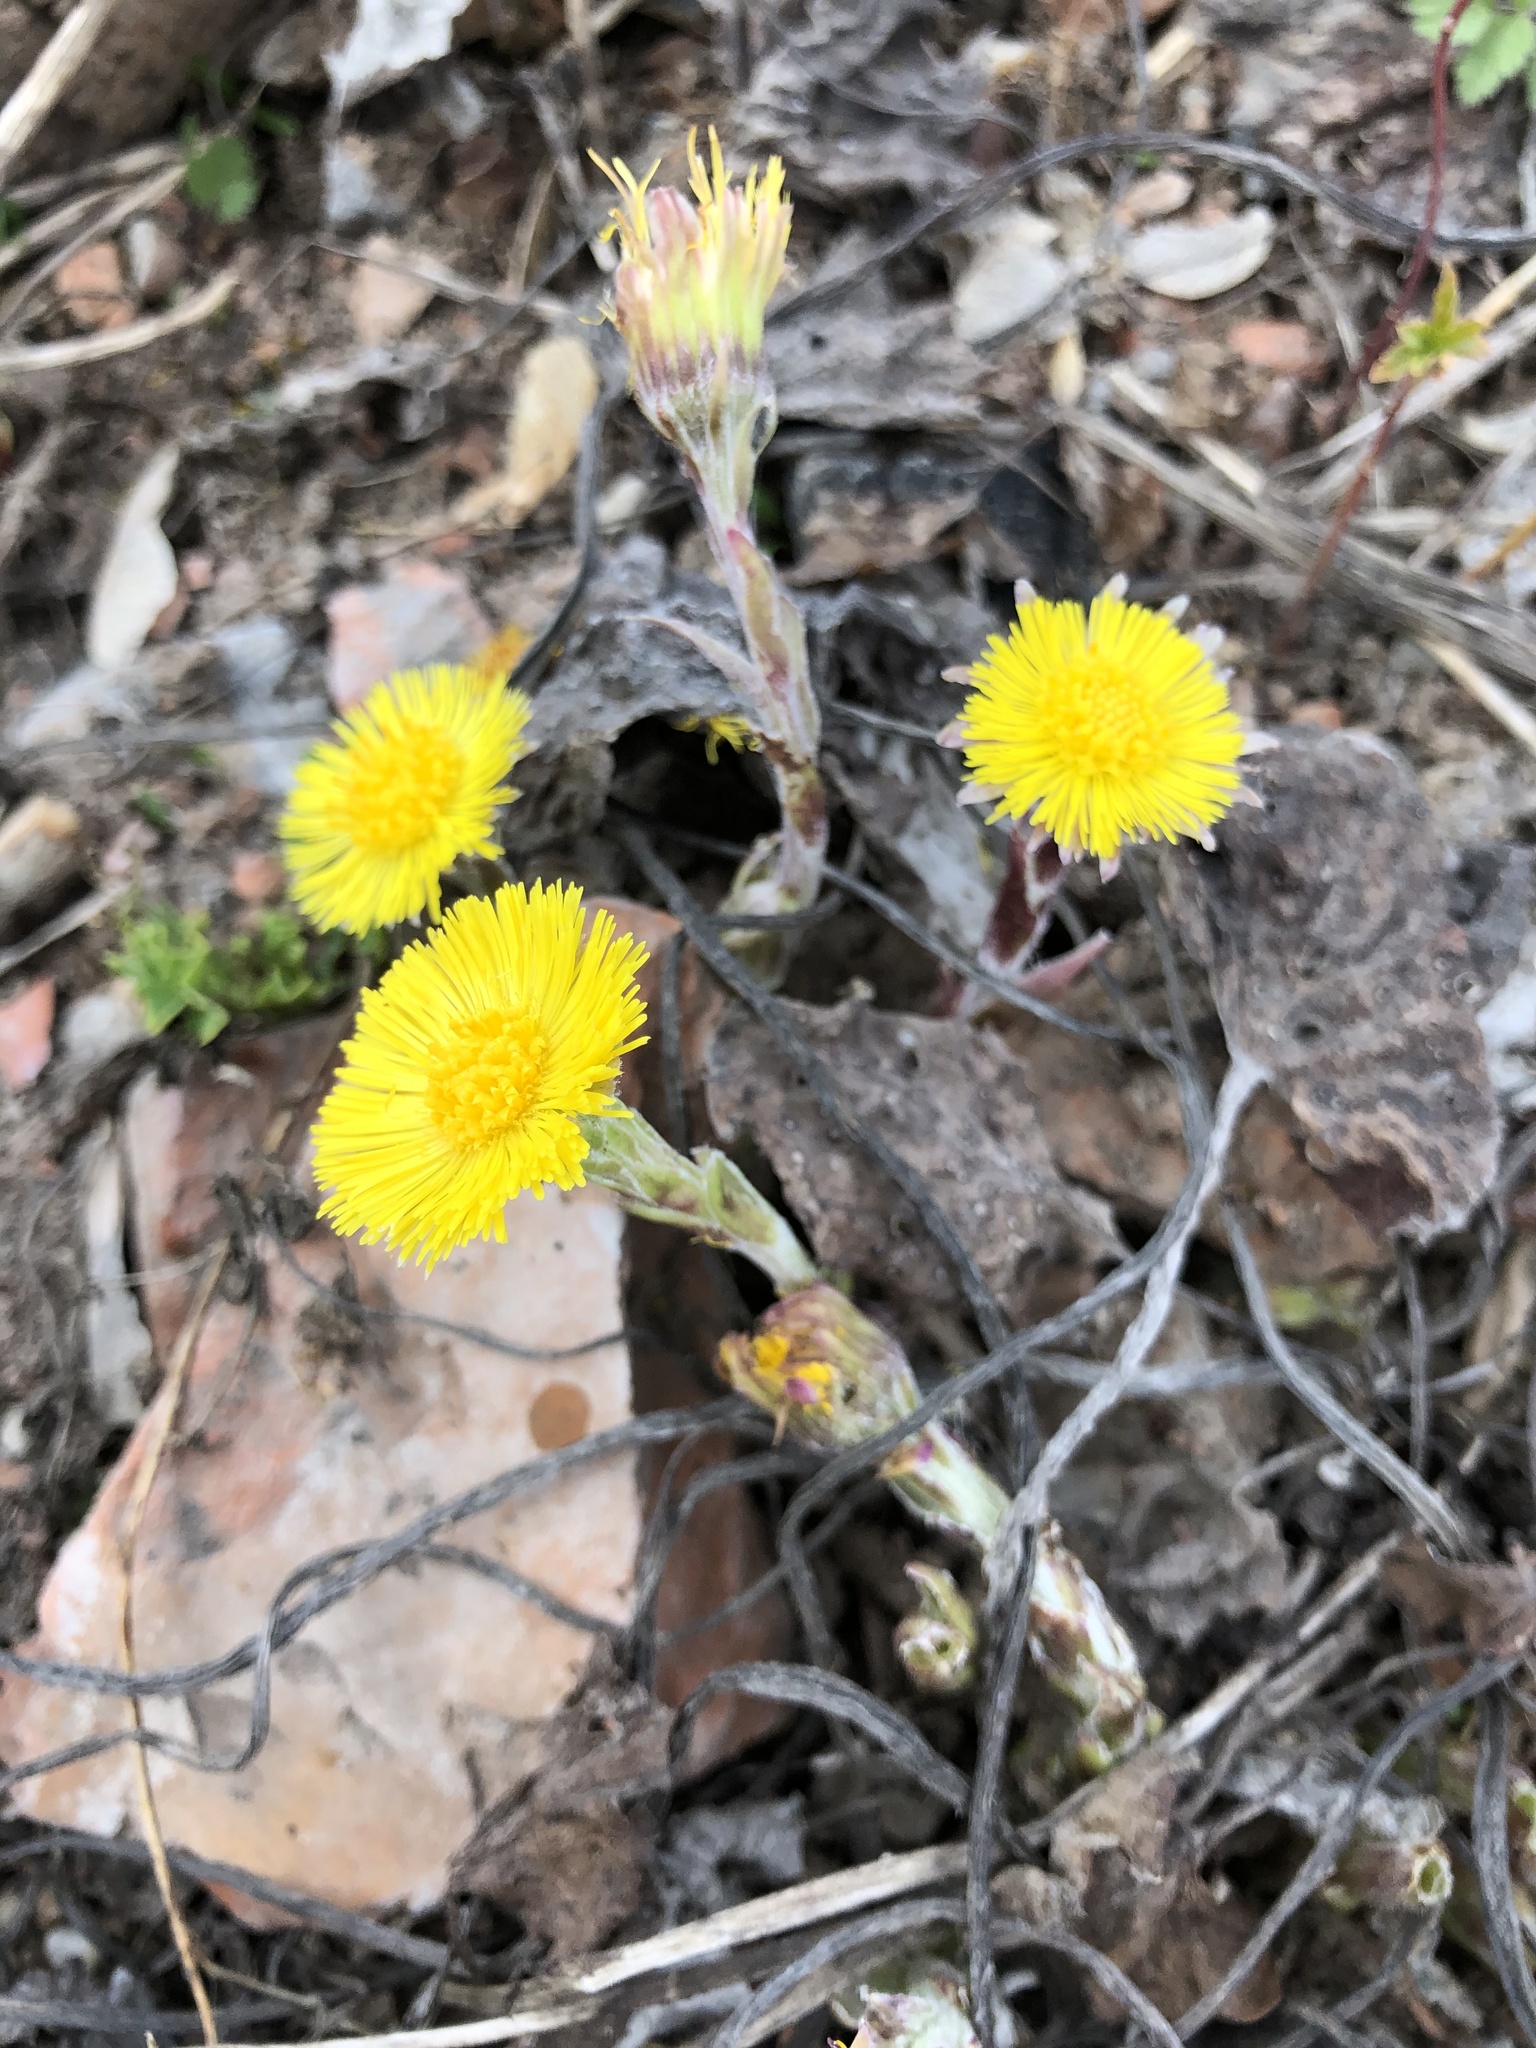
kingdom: Plantae
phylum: Tracheophyta
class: Magnoliopsida
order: Asterales
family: Asteraceae
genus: Tussilago
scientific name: Tussilago farfara
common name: Coltsfoot
